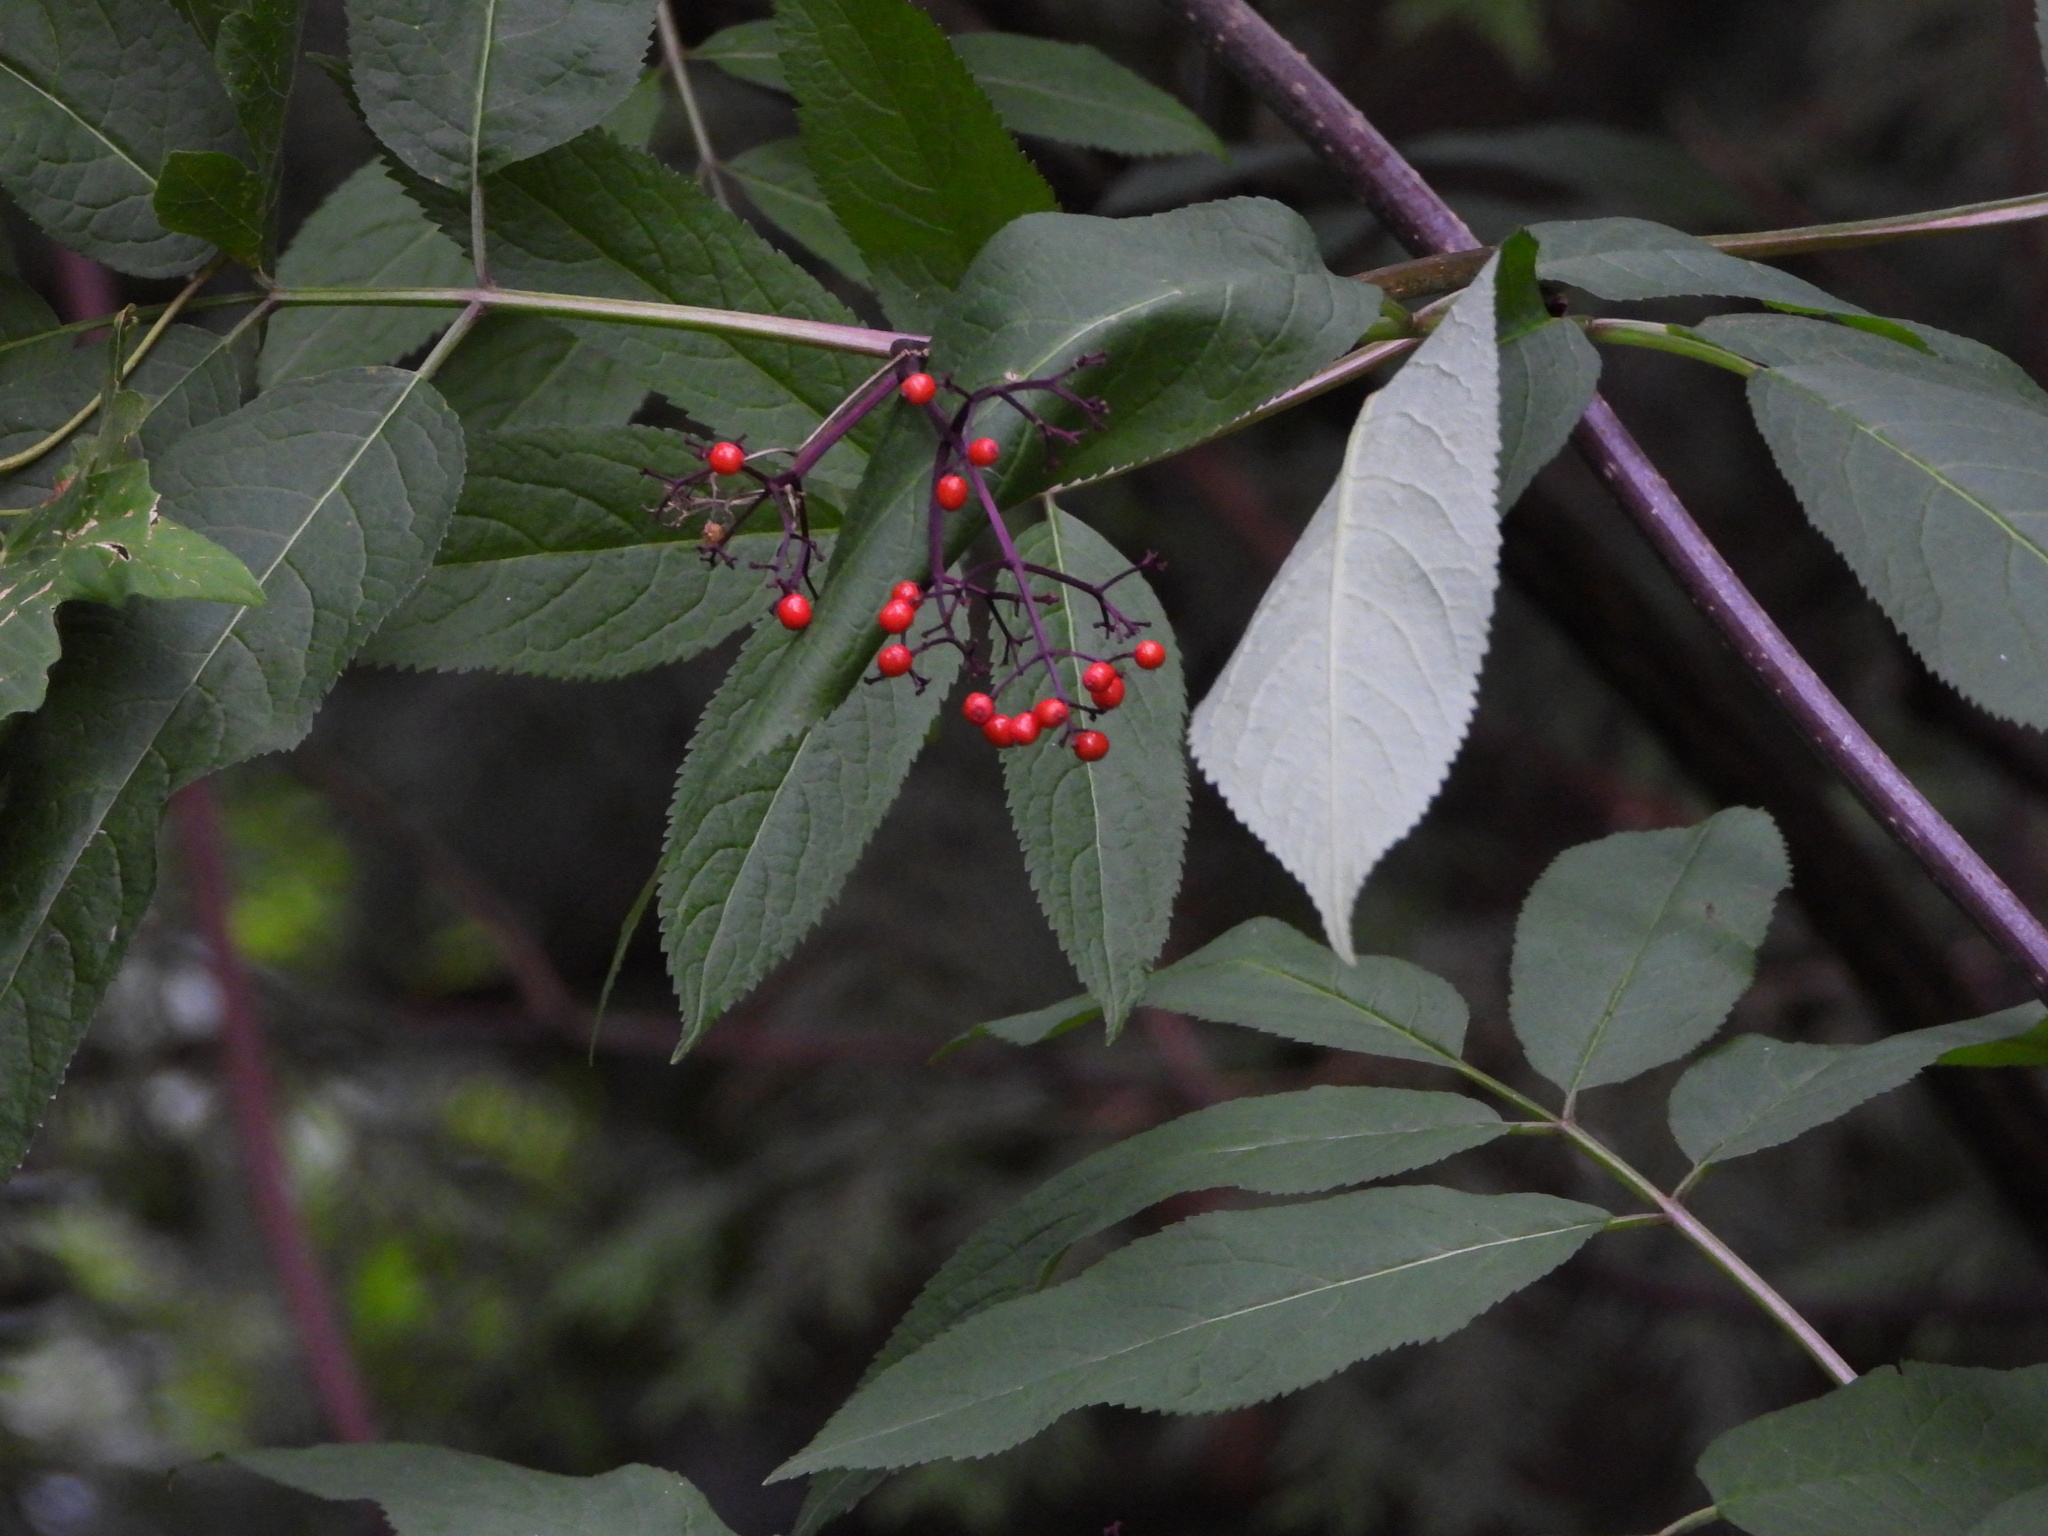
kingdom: Plantae
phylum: Tracheophyta
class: Magnoliopsida
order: Dipsacales
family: Viburnaceae
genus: Sambucus
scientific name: Sambucus racemosa
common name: Red-berried elder
